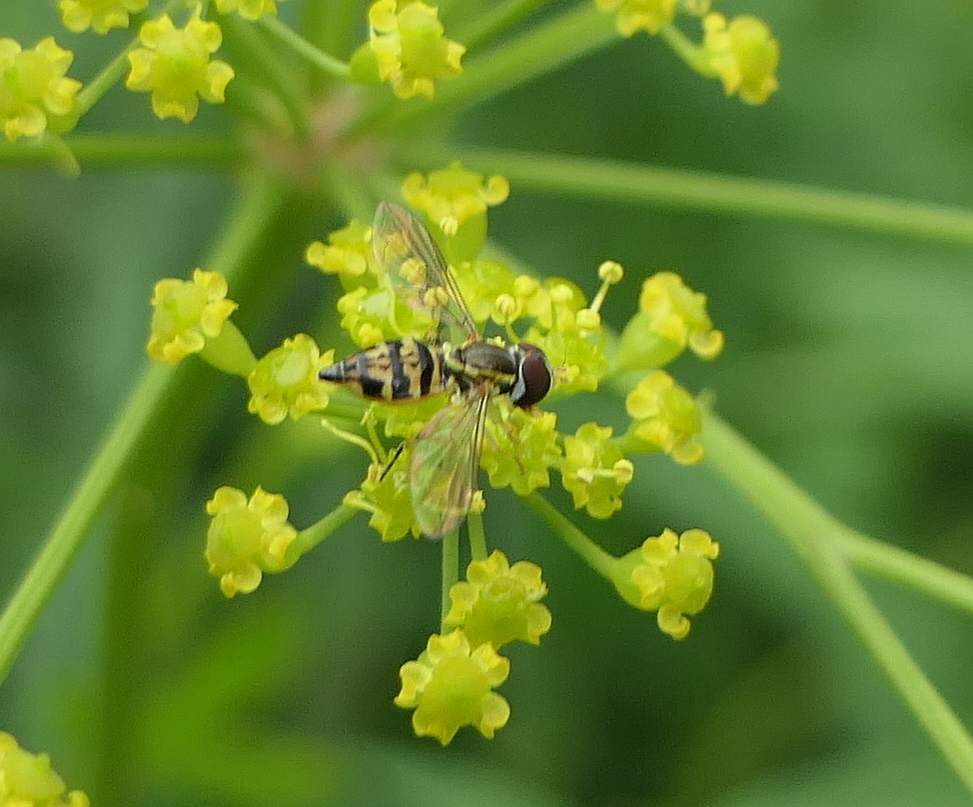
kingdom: Animalia
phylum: Arthropoda
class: Insecta
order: Diptera
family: Syrphidae
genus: Toxomerus
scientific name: Toxomerus marginatus
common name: Syrphid fly
